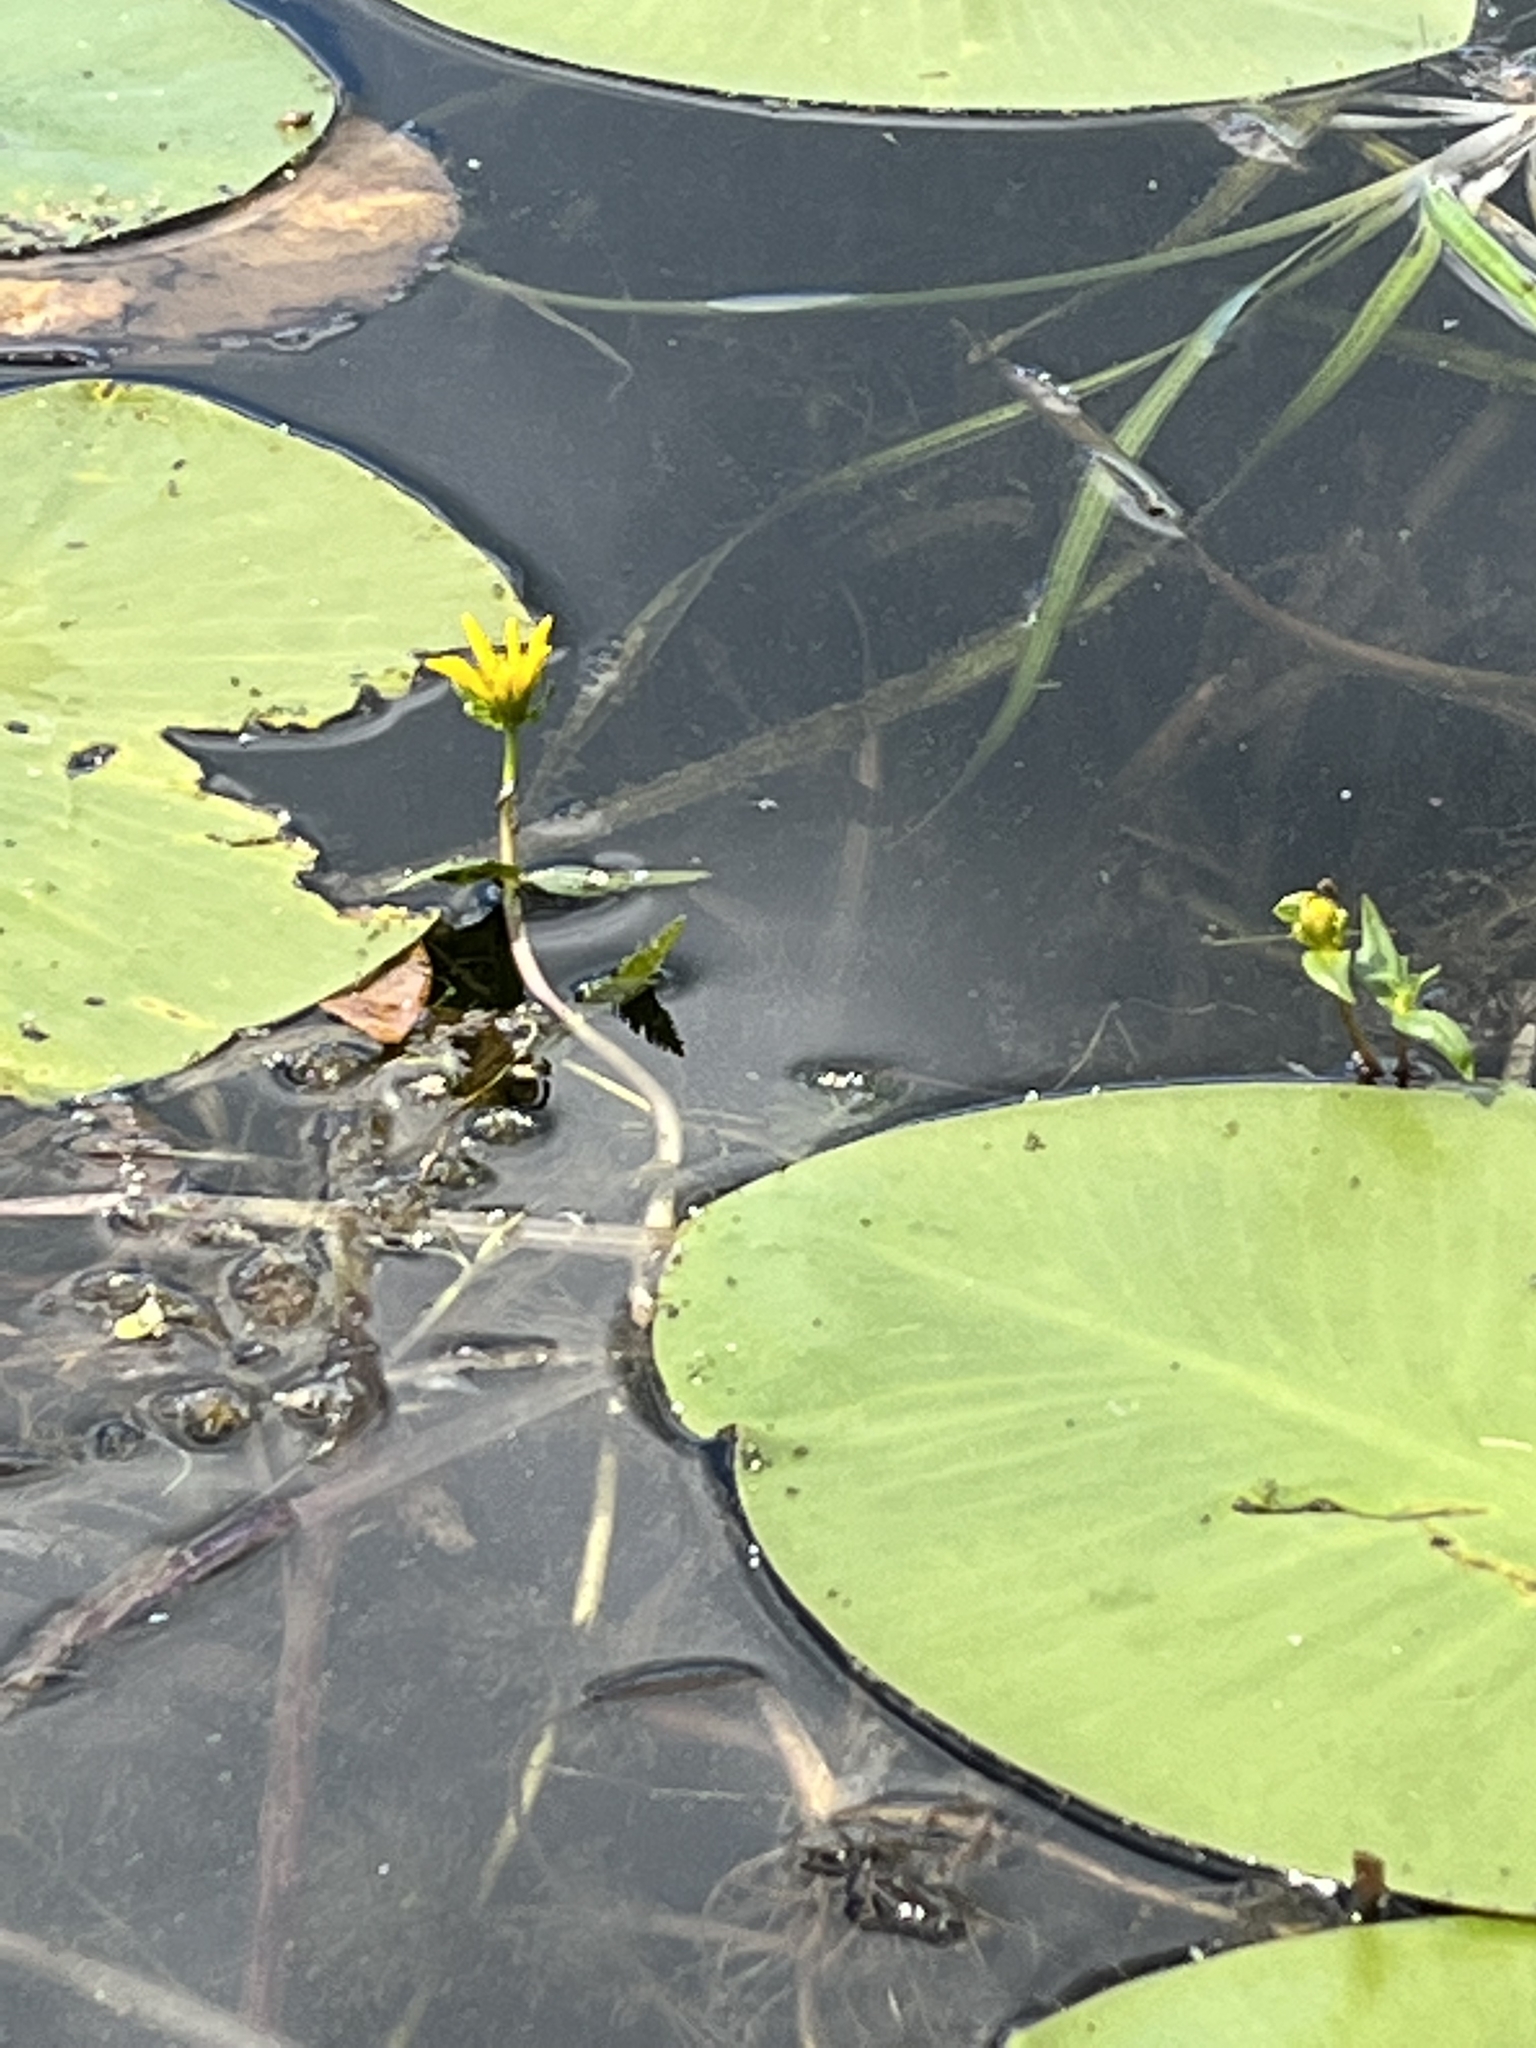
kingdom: Plantae
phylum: Tracheophyta
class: Magnoliopsida
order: Asterales
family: Asteraceae
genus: Bidens
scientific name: Bidens beckii
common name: Beck's beggarticks
